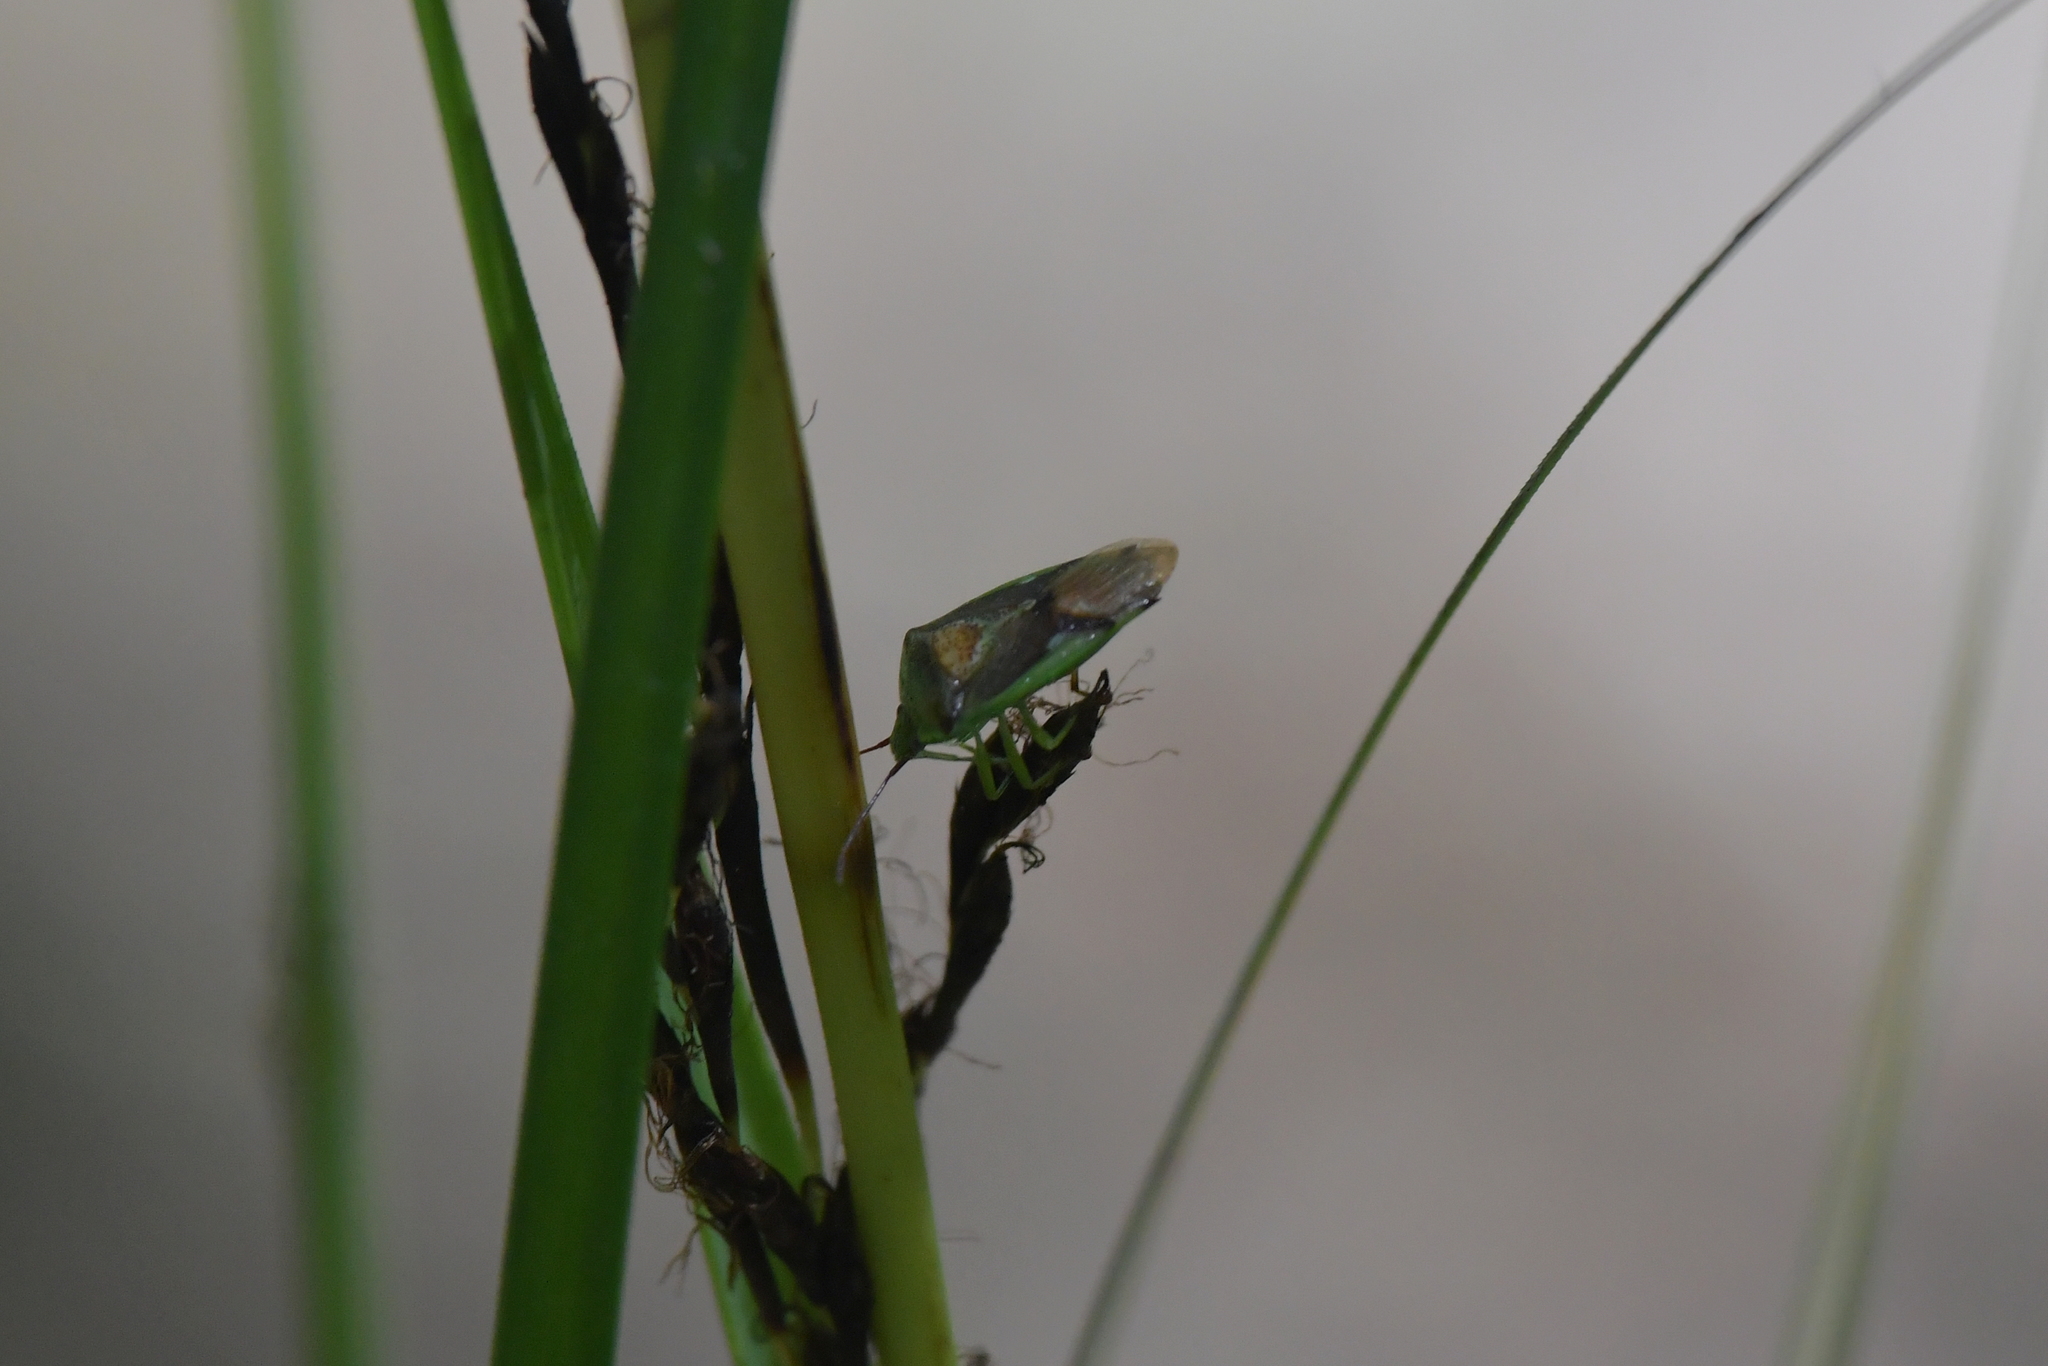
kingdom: Animalia
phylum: Arthropoda
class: Insecta
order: Hemiptera
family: Acanthosomatidae
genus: Oncacontias
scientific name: Oncacontias vittatus
